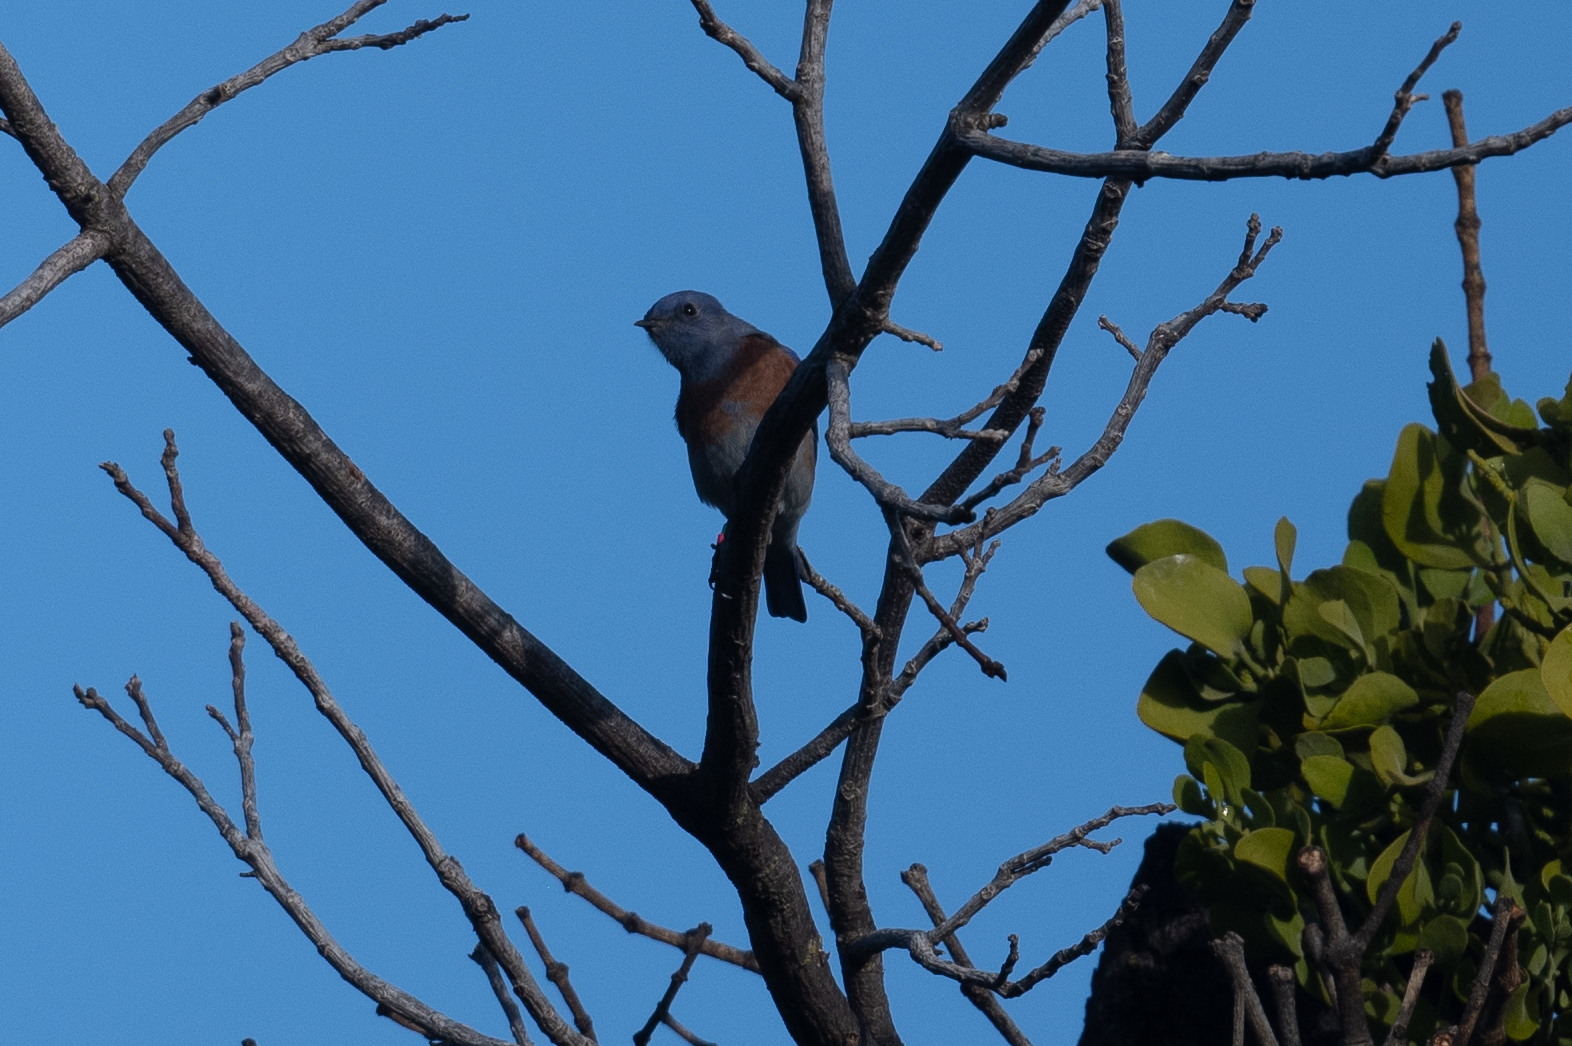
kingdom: Animalia
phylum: Chordata
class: Aves
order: Passeriformes
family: Turdidae
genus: Sialia
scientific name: Sialia mexicana
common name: Western bluebird
